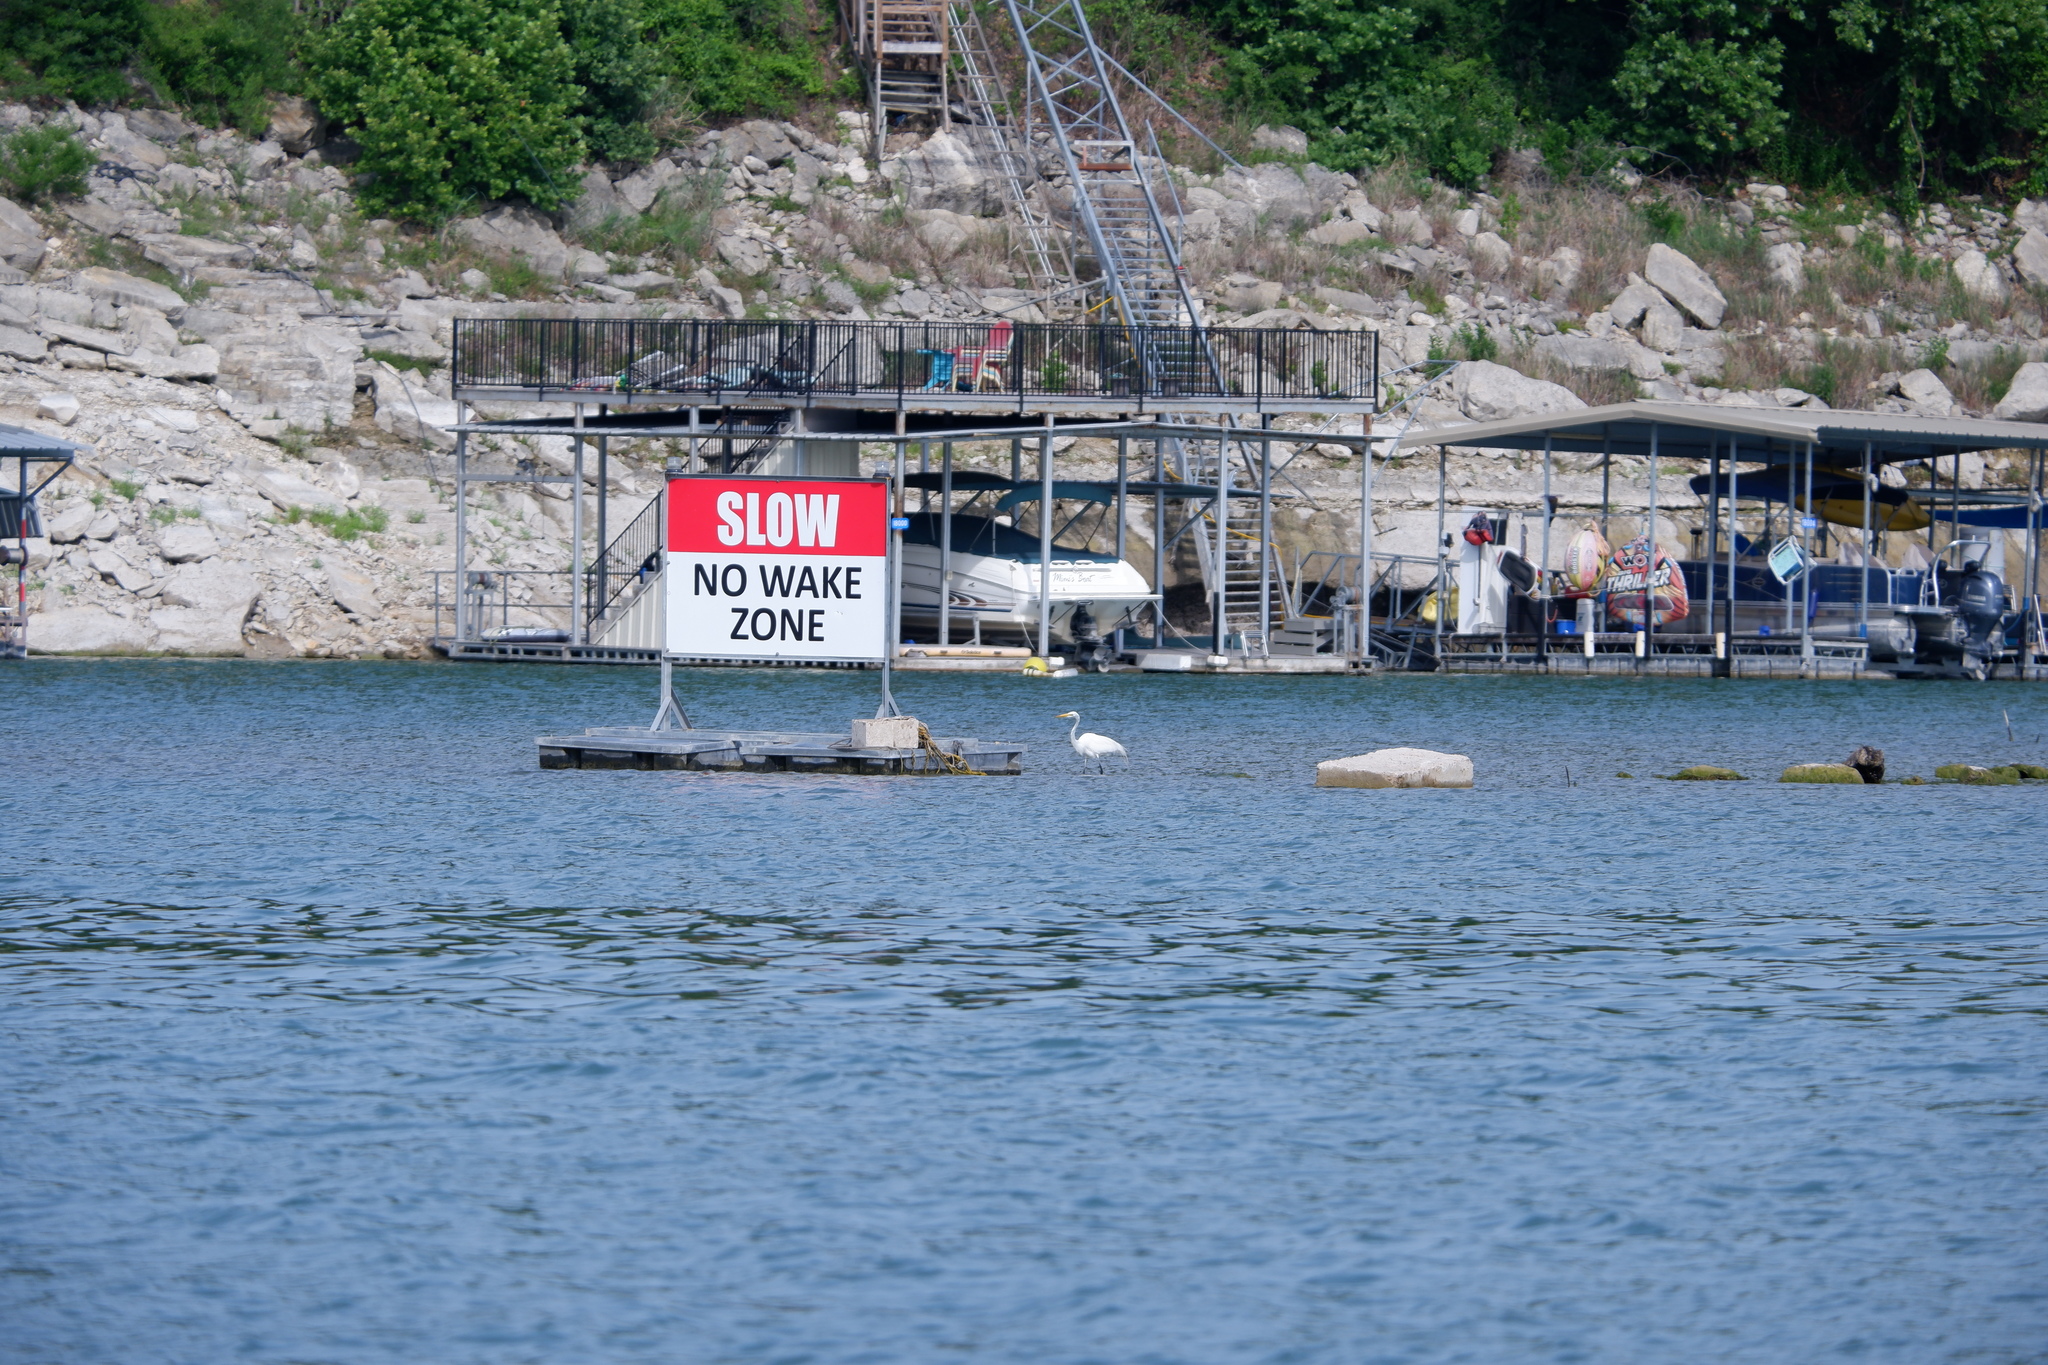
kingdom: Animalia
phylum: Chordata
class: Aves
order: Pelecaniformes
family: Ardeidae
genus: Ardea
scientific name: Ardea alba
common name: Great egret
